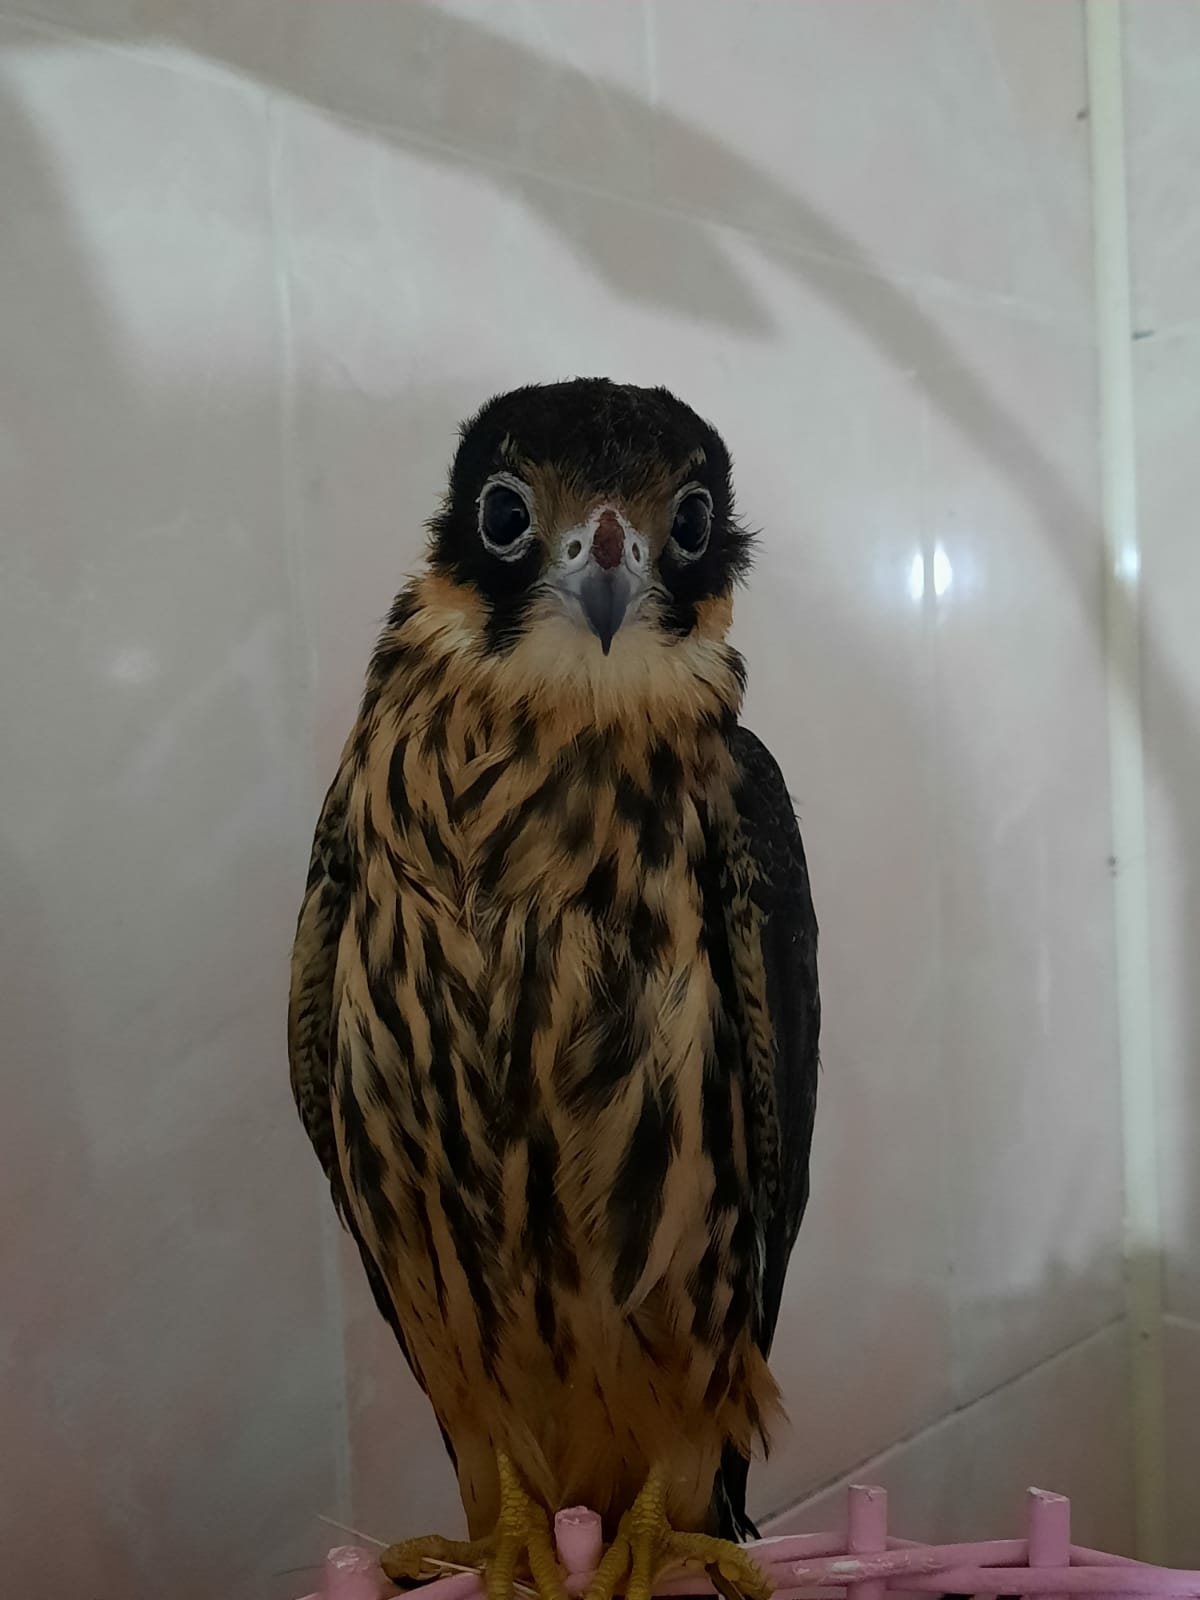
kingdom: Animalia
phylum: Chordata
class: Aves
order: Falconiformes
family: Falconidae
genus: Falco
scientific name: Falco subbuteo
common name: Eurasian hobby
